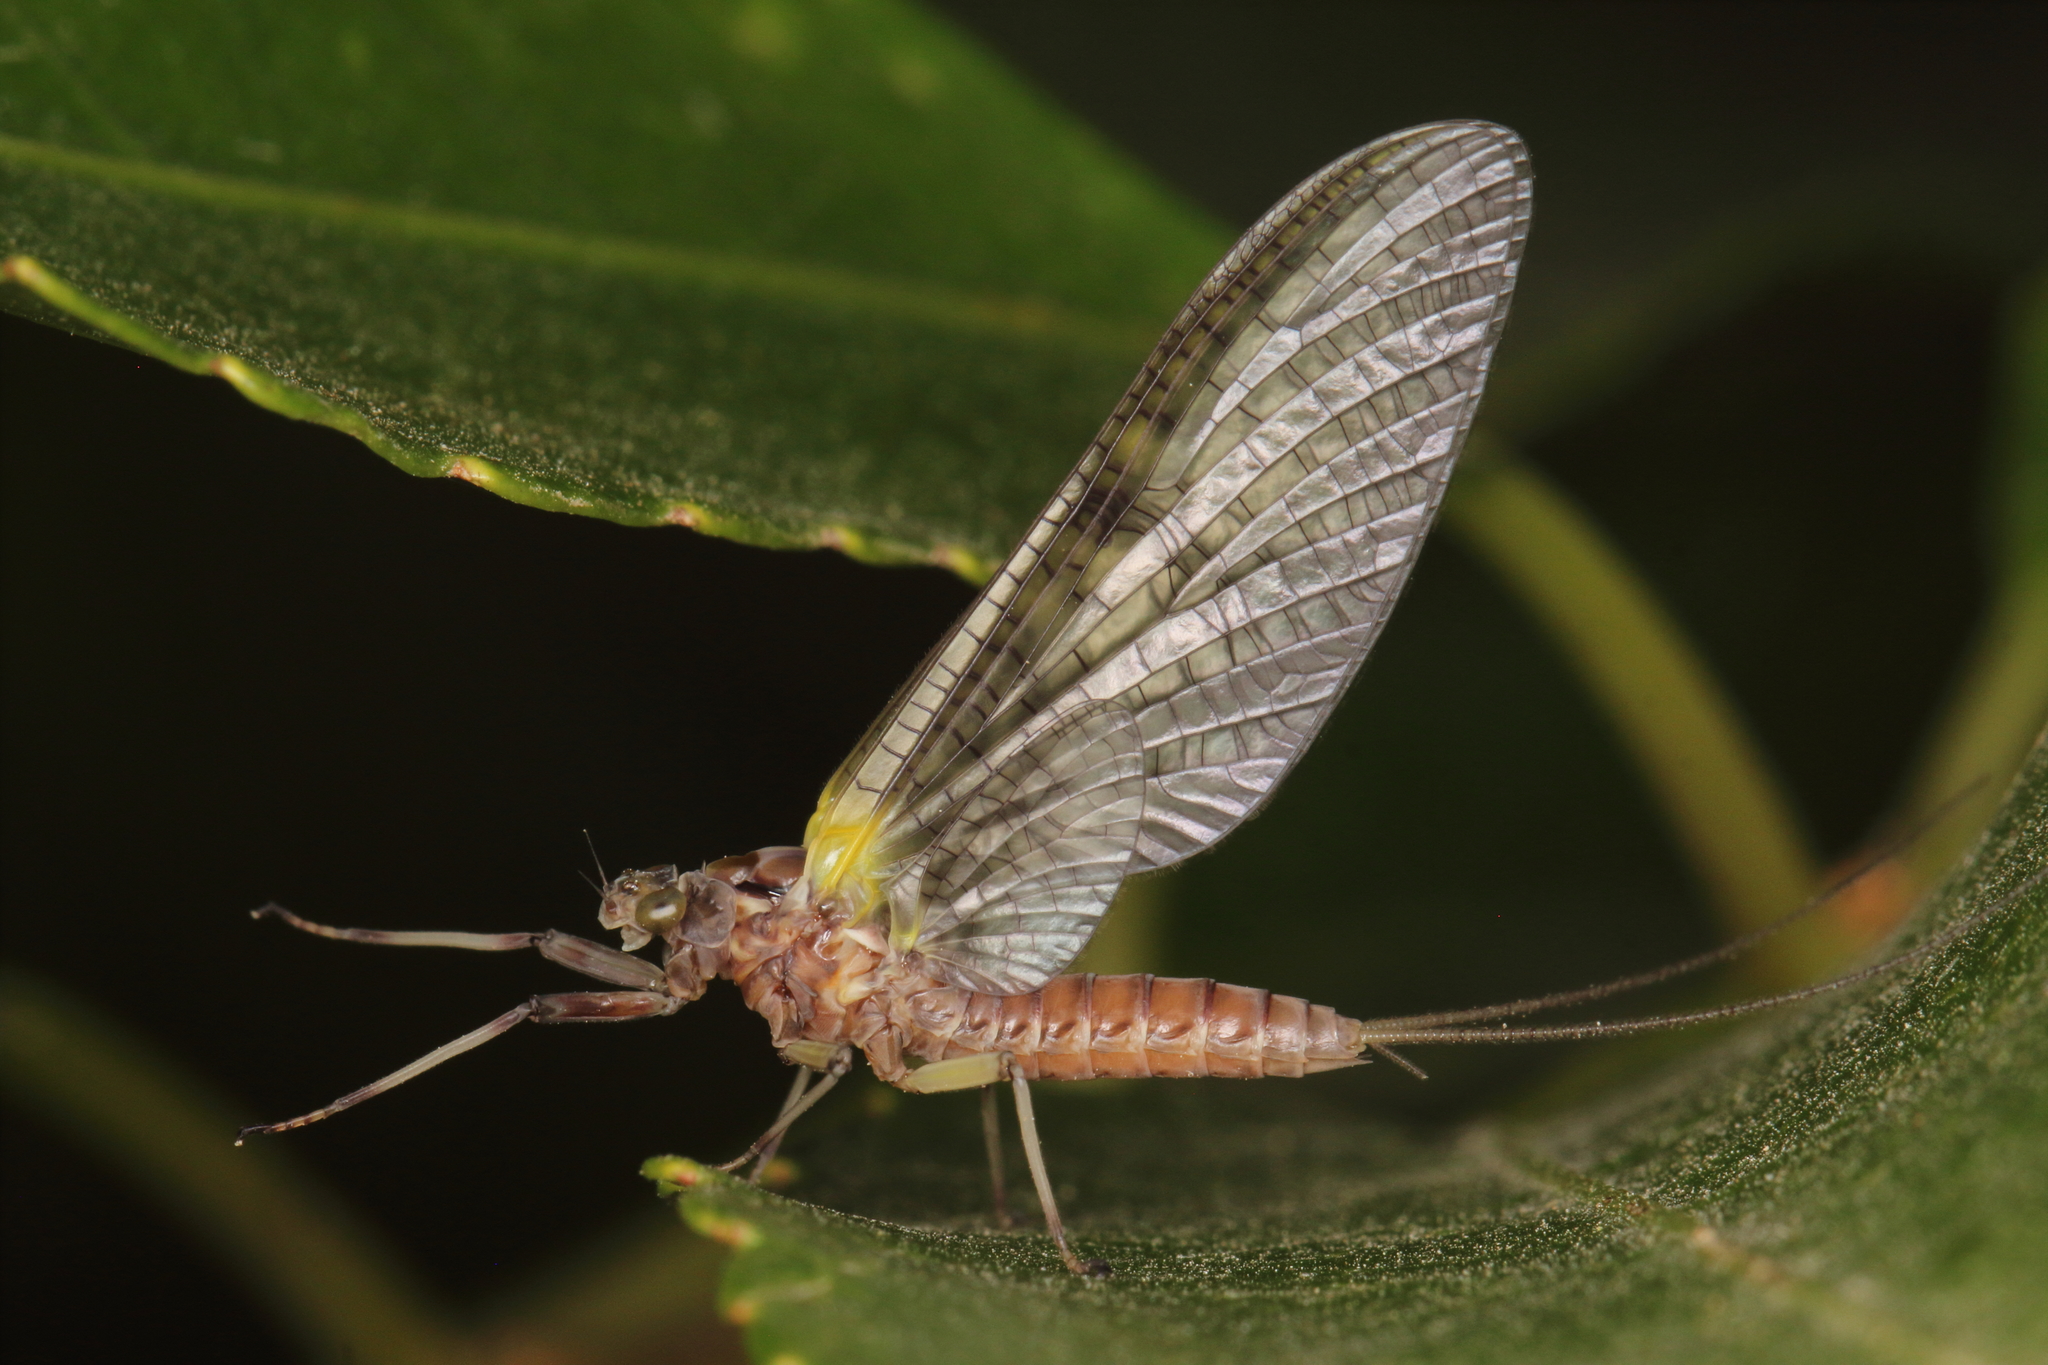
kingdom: Animalia
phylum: Arthropoda
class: Insecta
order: Ephemeroptera
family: Coloburiscidae
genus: Coloburiscus
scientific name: Coloburiscus humeralis
